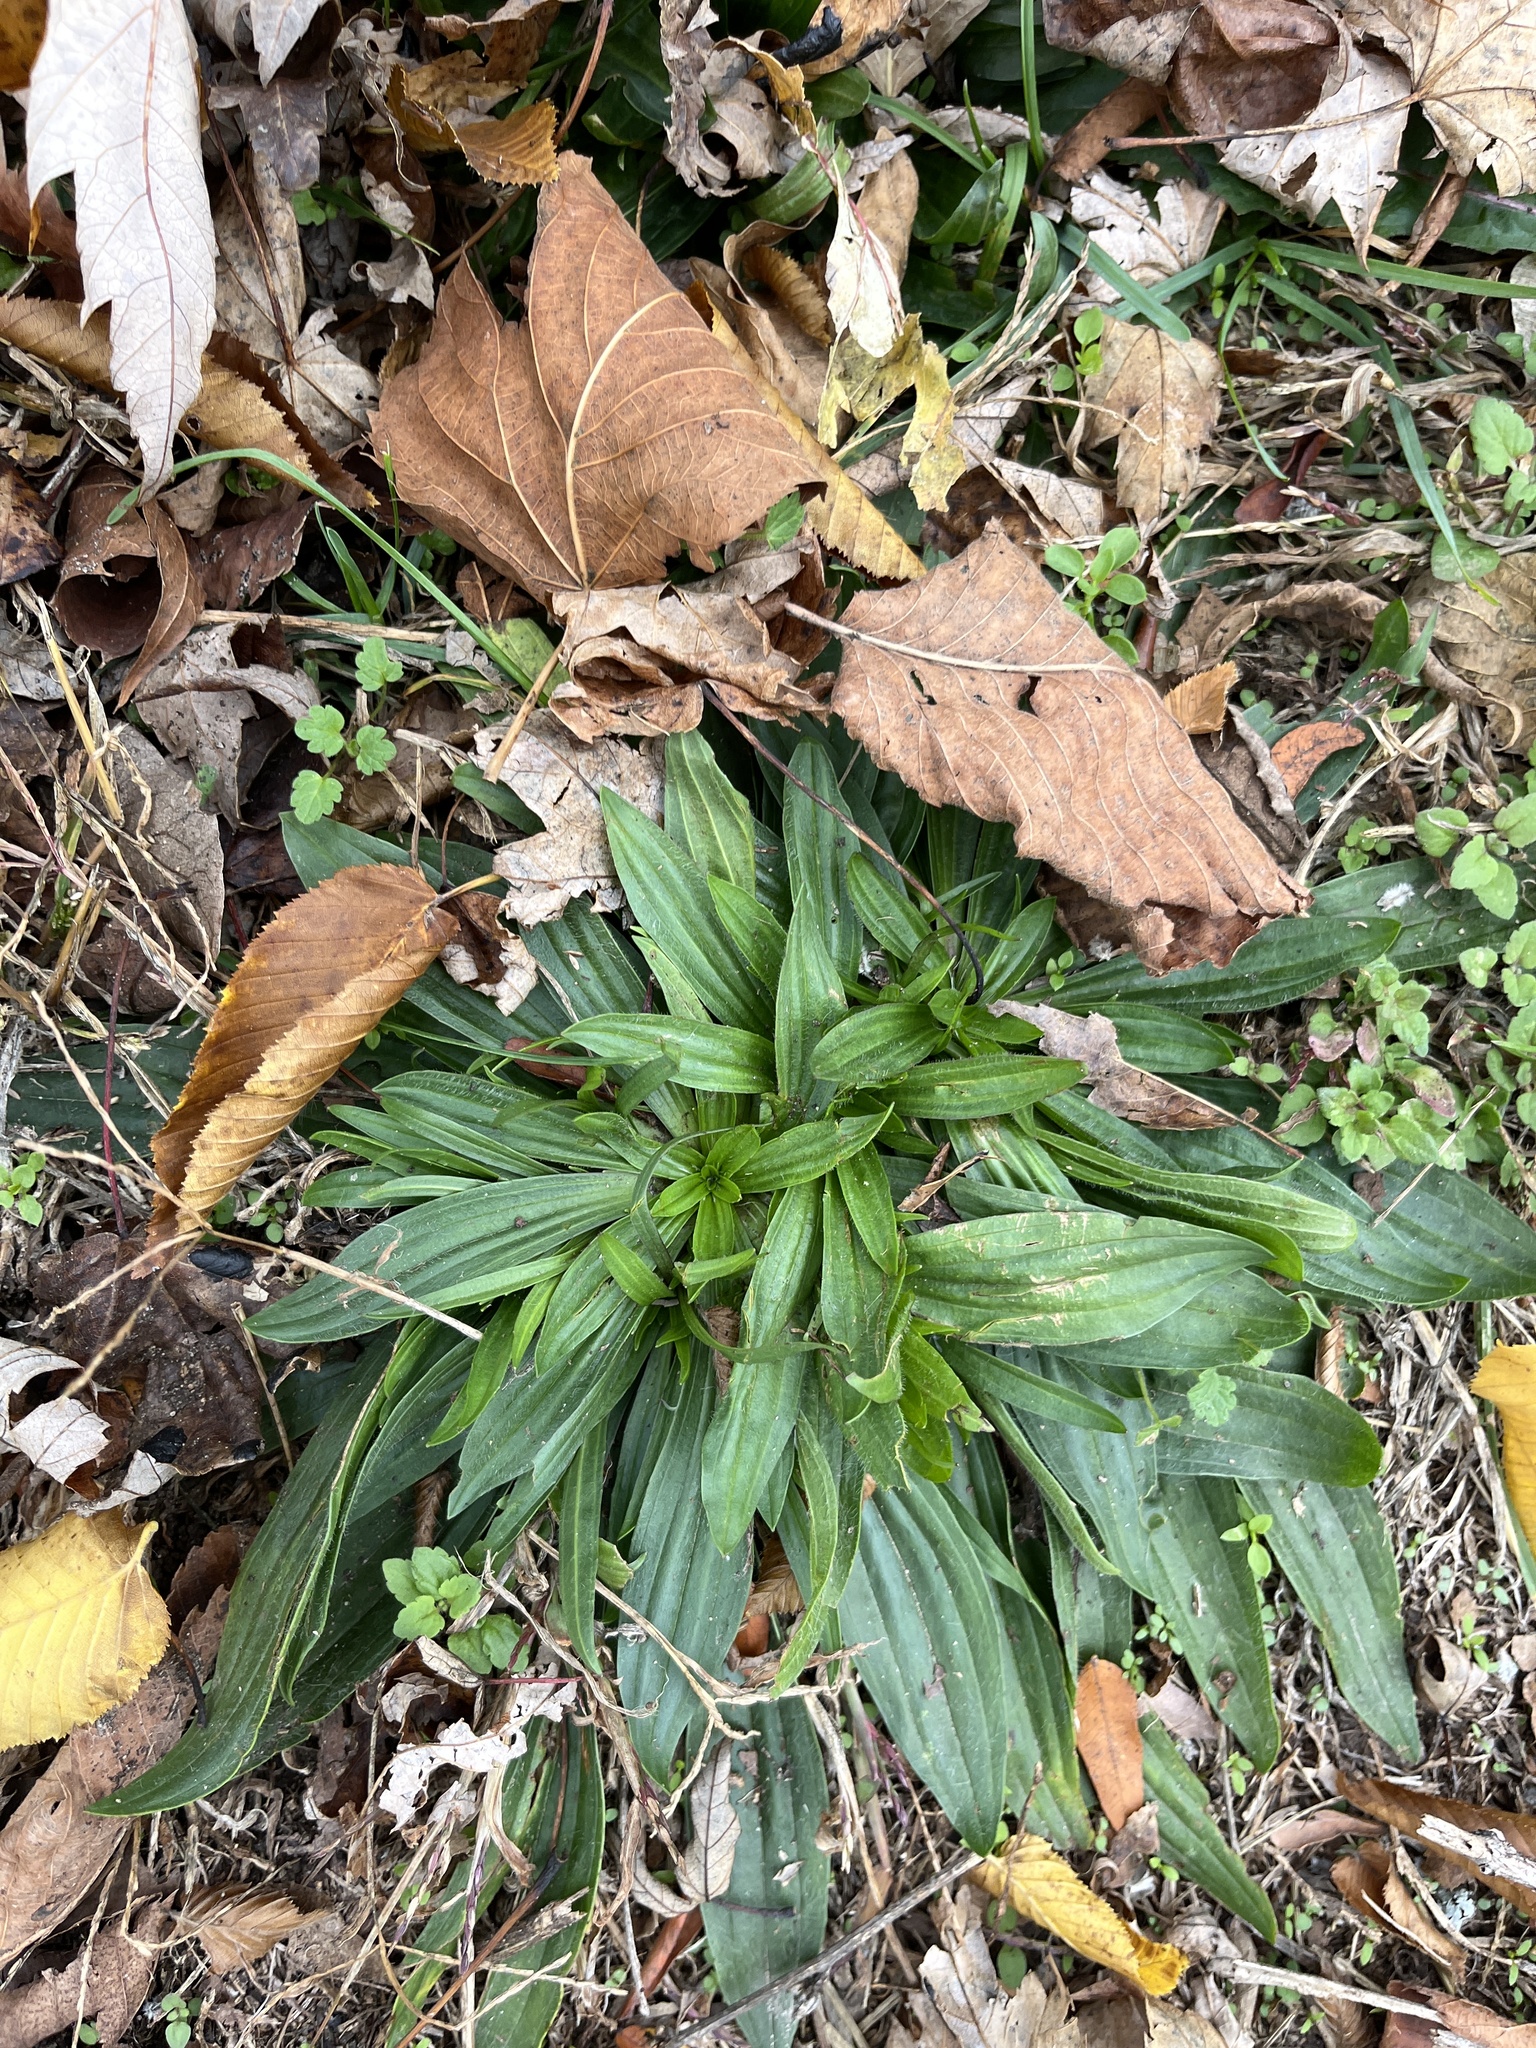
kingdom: Plantae
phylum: Tracheophyta
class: Magnoliopsida
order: Lamiales
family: Plantaginaceae
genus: Plantago
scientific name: Plantago lanceolata
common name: Ribwort plantain
